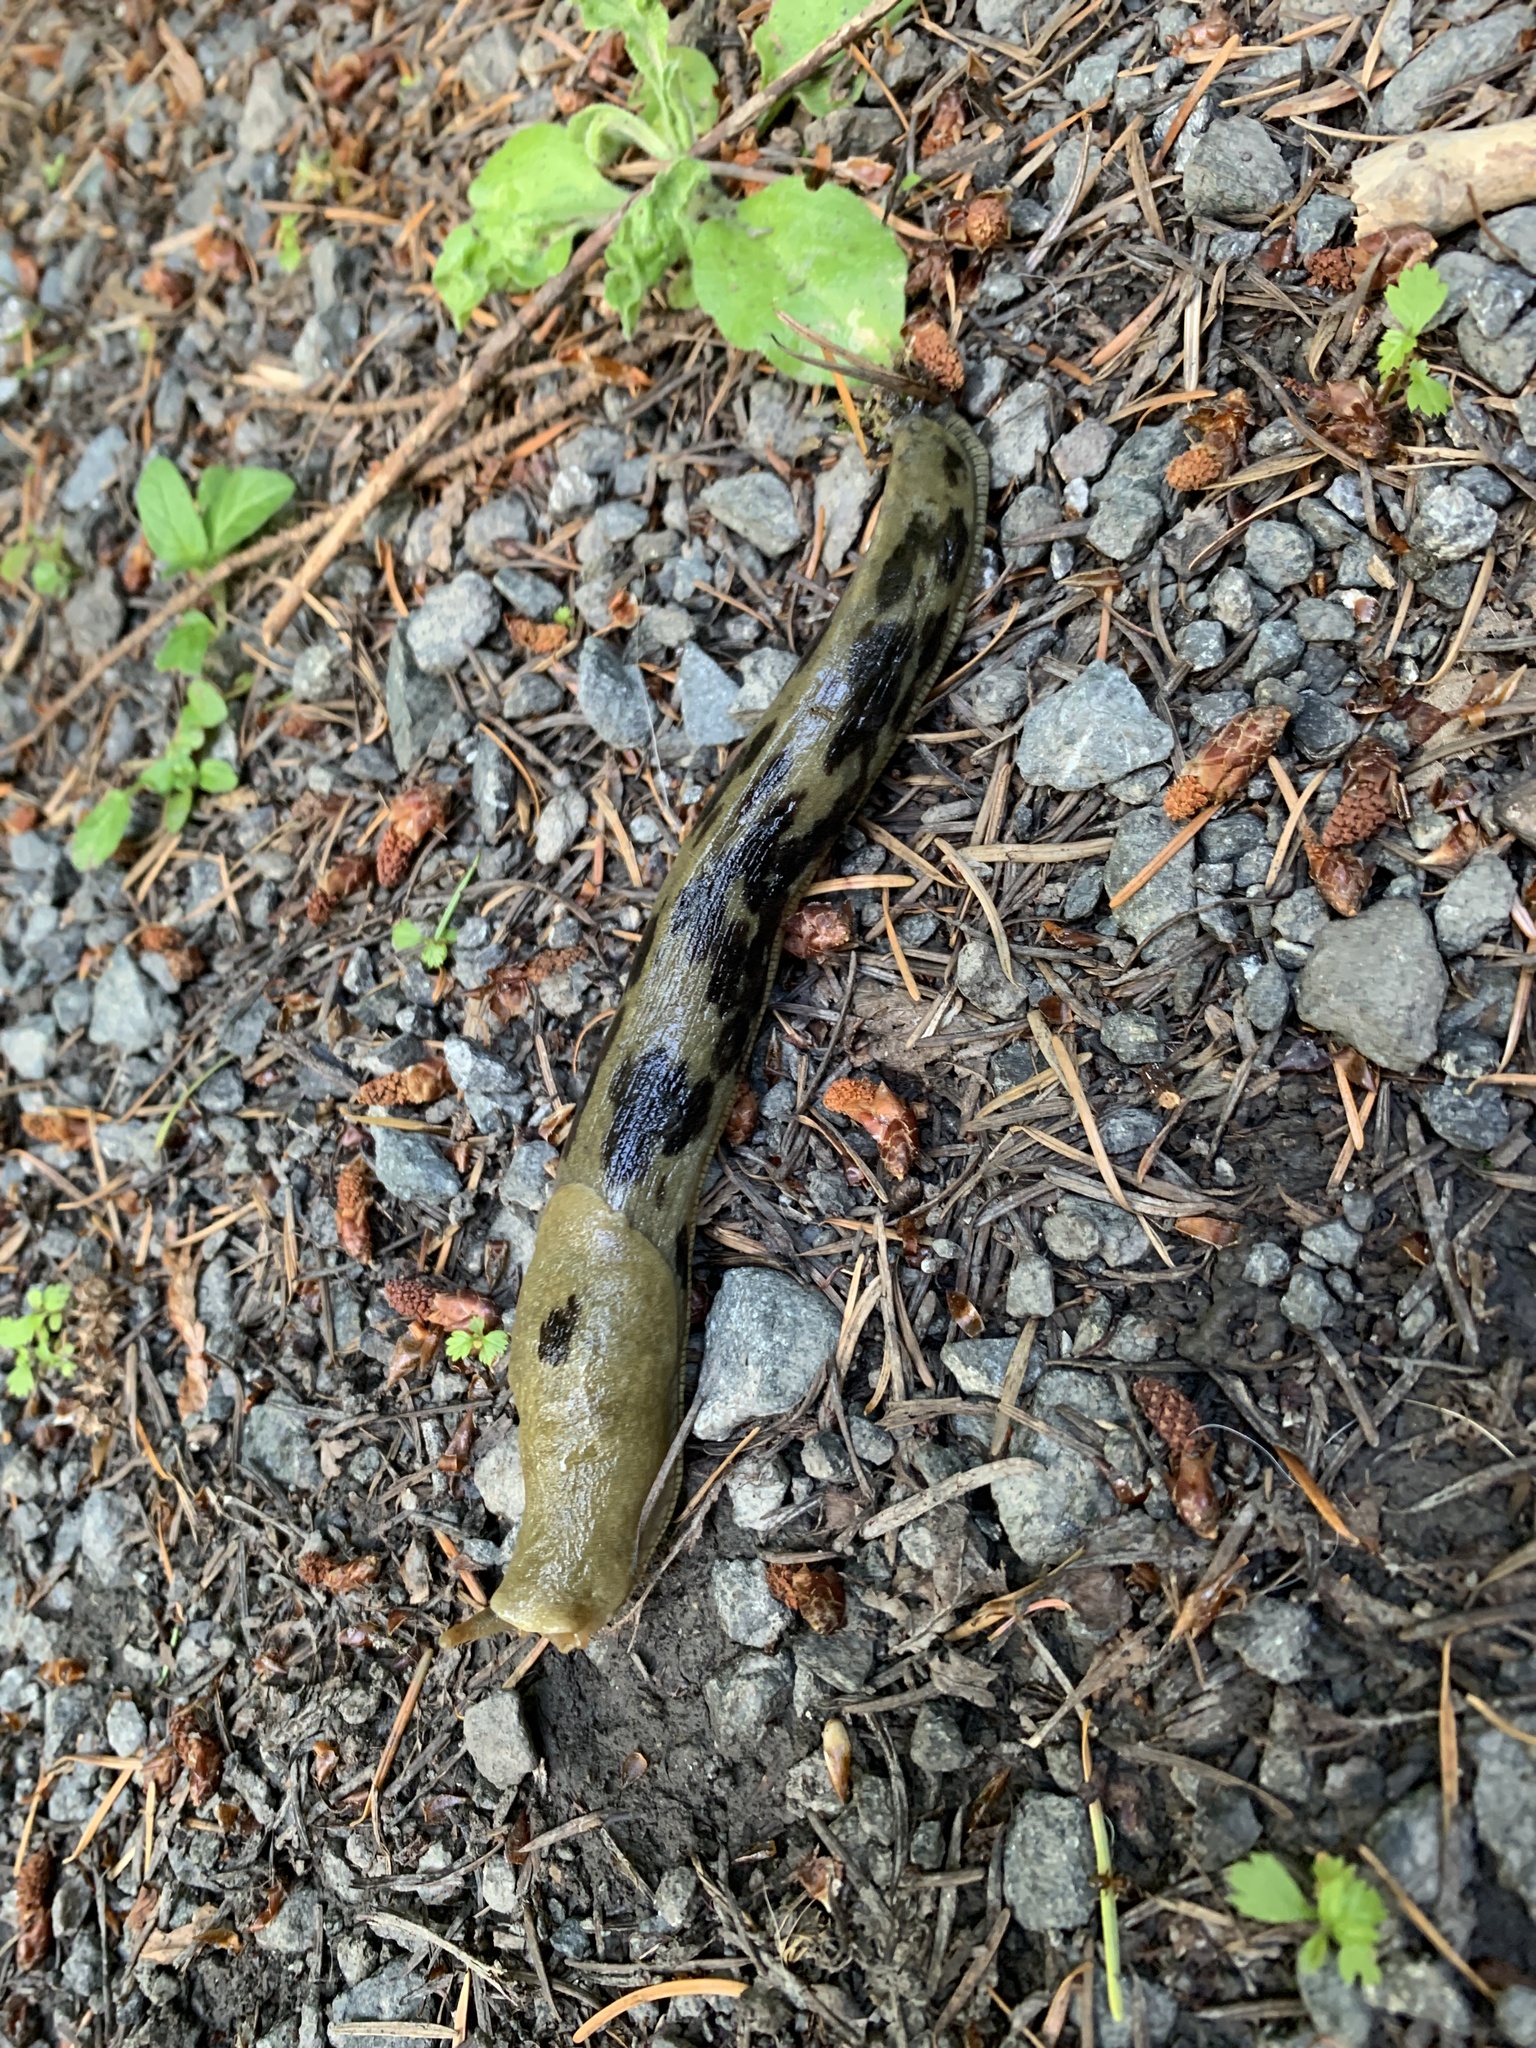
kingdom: Animalia
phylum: Mollusca
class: Gastropoda
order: Stylommatophora
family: Ariolimacidae
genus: Ariolimax
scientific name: Ariolimax columbianus
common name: Pacific banana slug
